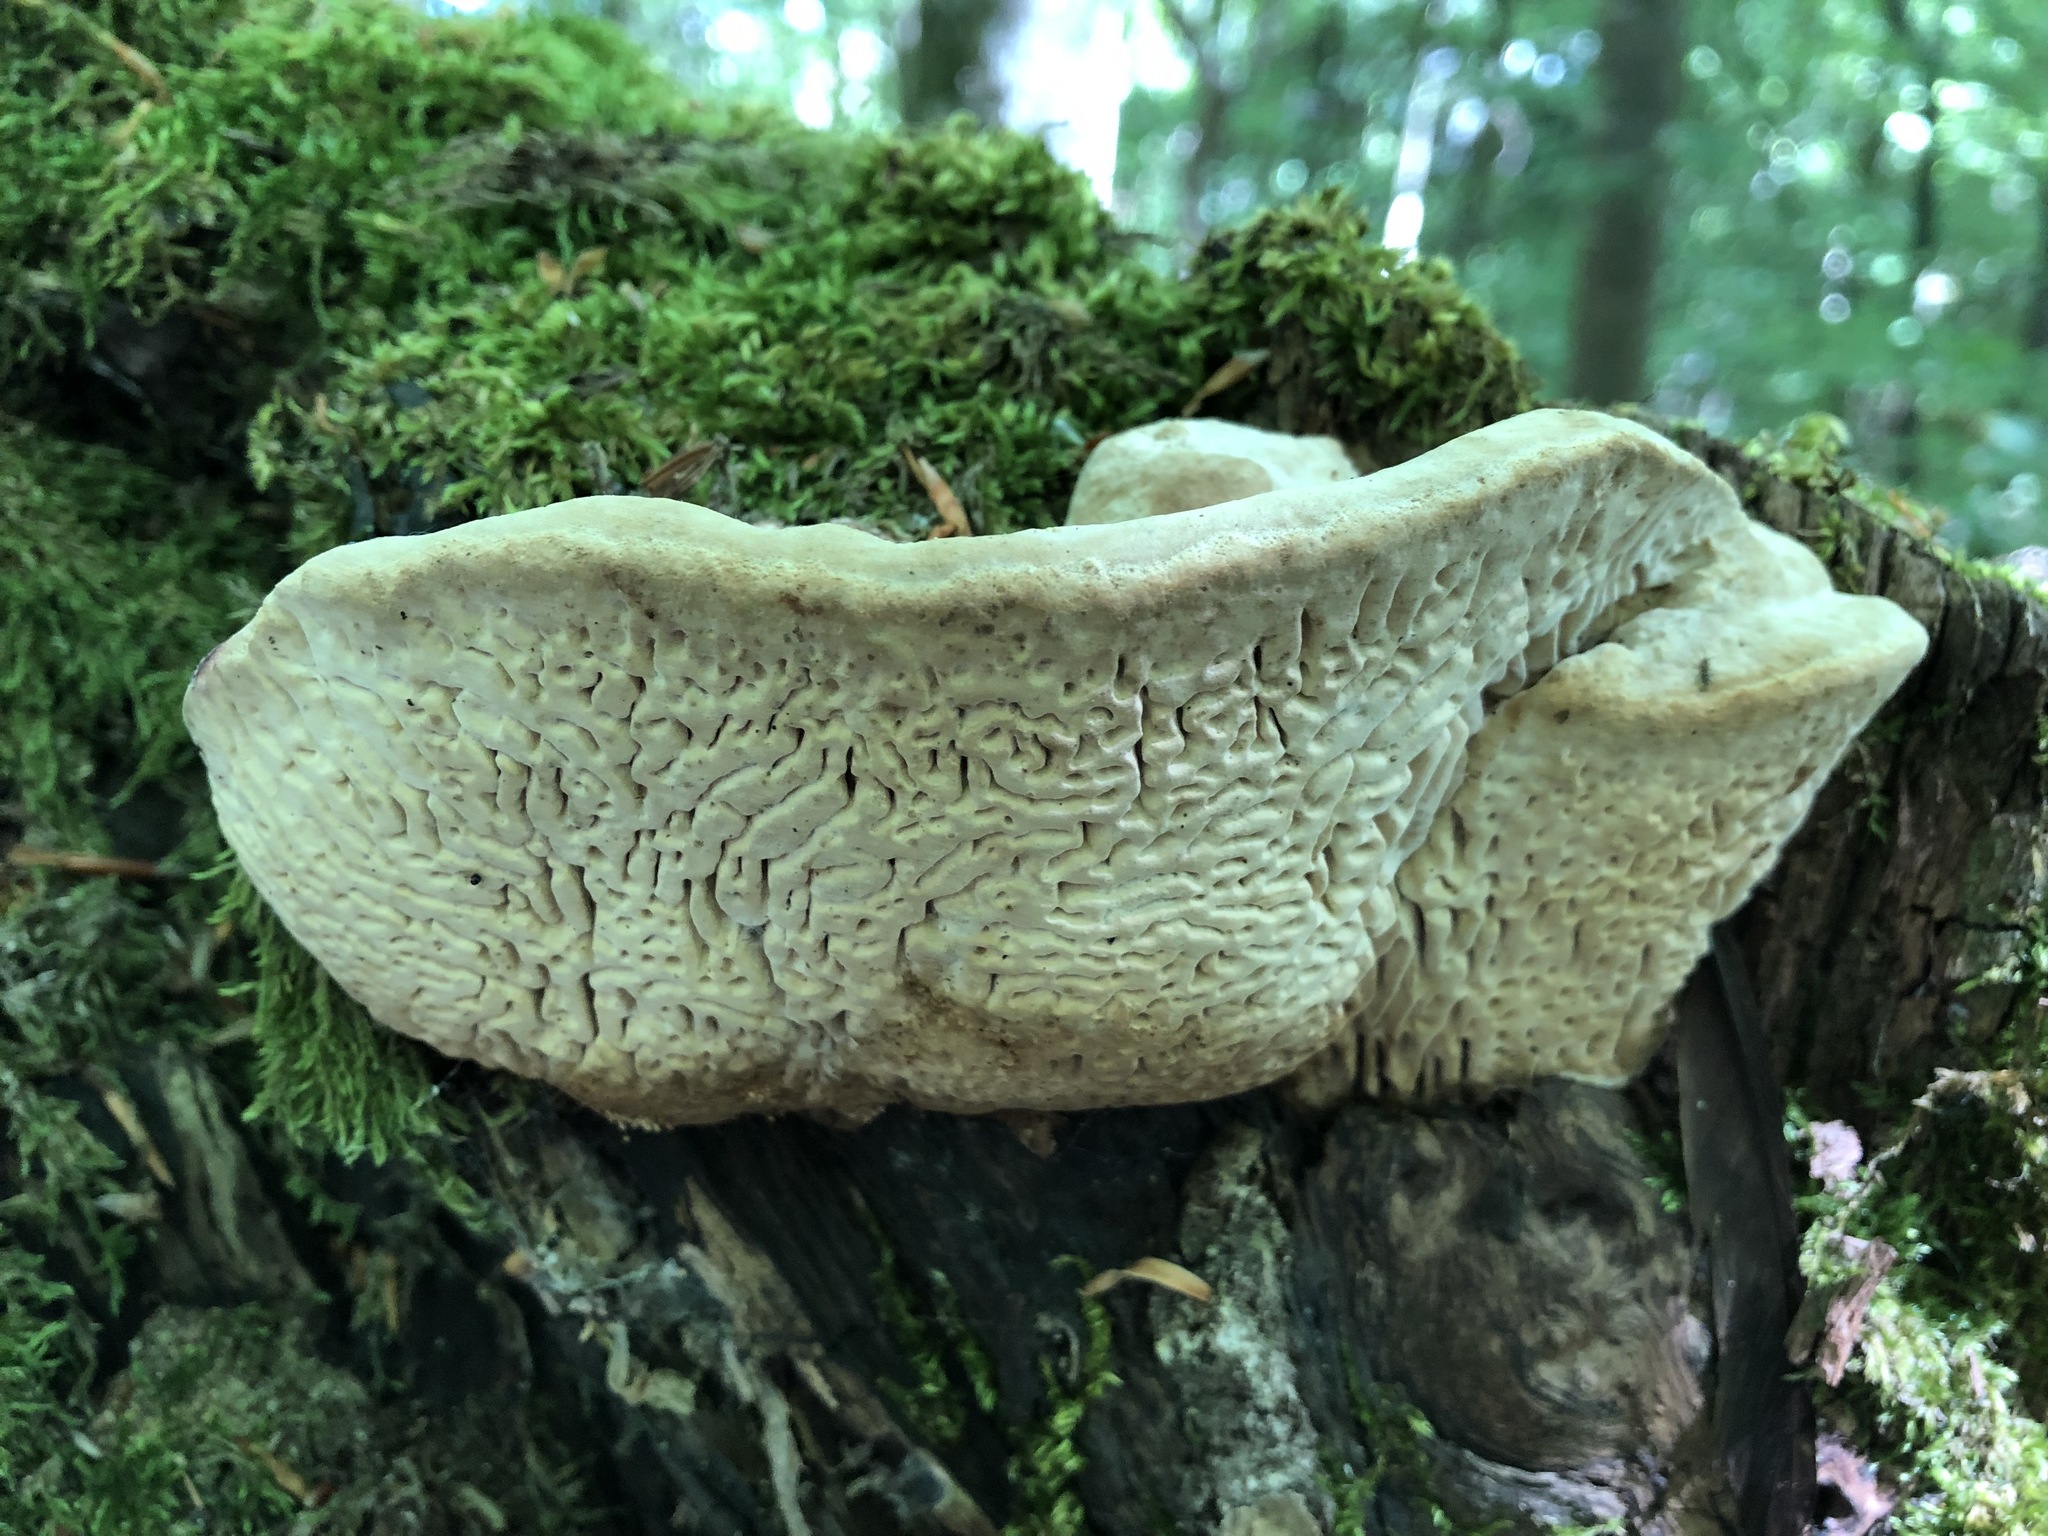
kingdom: Fungi
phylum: Basidiomycota
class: Agaricomycetes
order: Polyporales
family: Fomitopsidaceae
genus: Fomitopsis
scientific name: Fomitopsis
